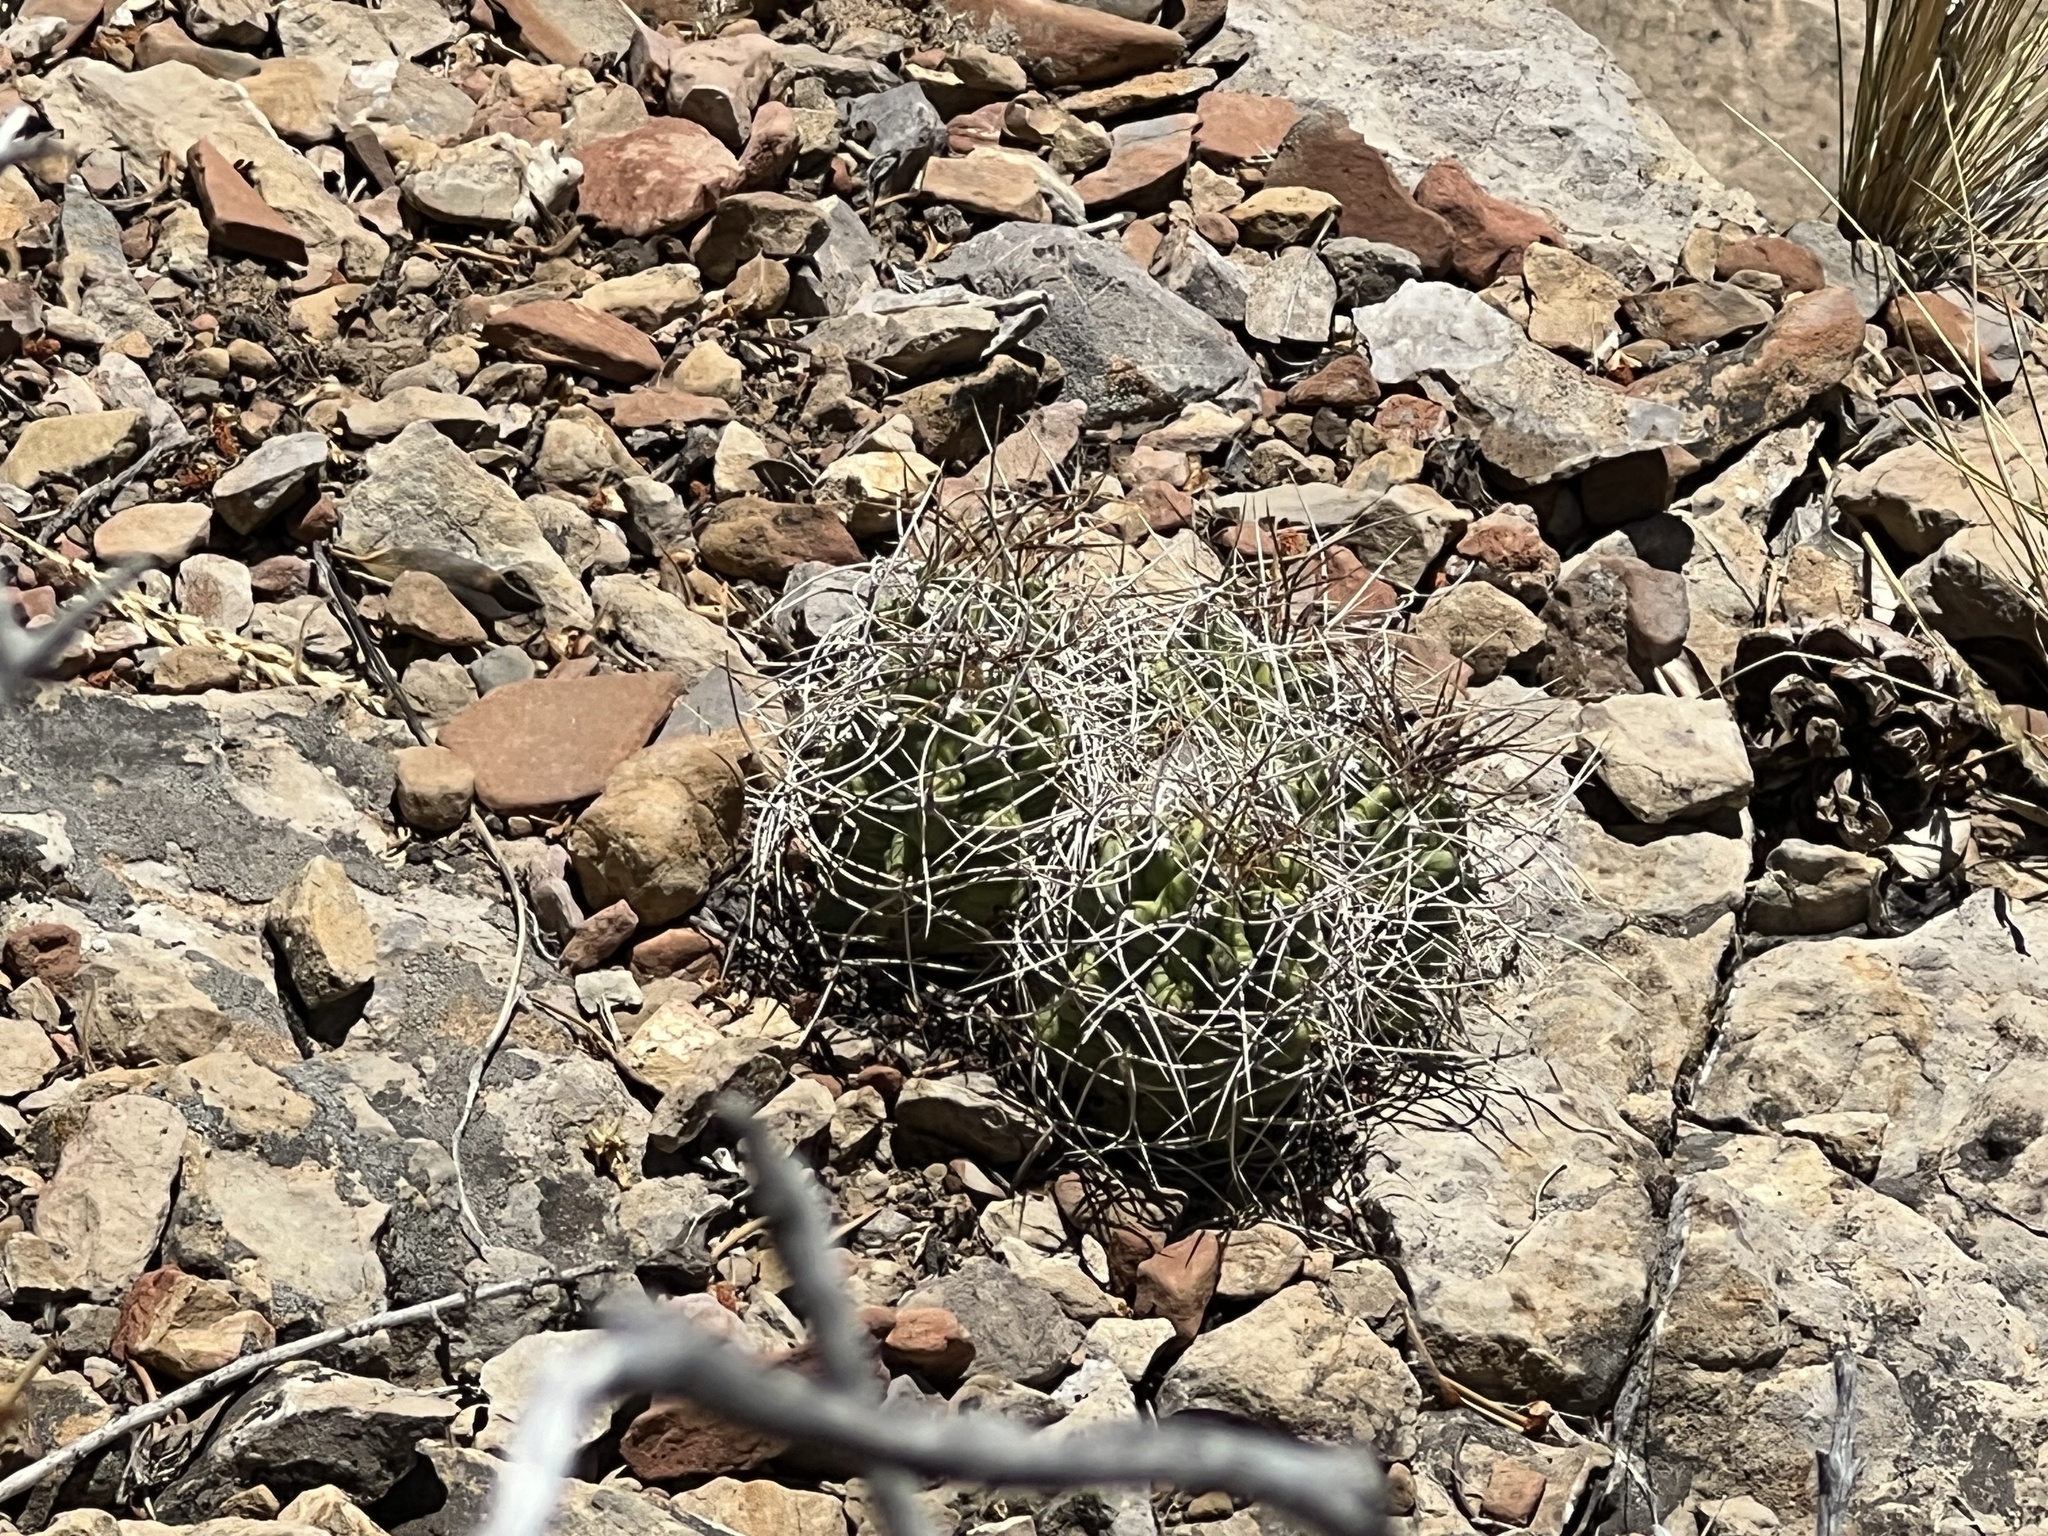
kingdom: Plantae
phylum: Tracheophyta
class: Magnoliopsida
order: Caryophyllales
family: Cactaceae
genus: Echinocereus
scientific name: Echinocereus triglochidiatus
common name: Claretcup hedgehog
